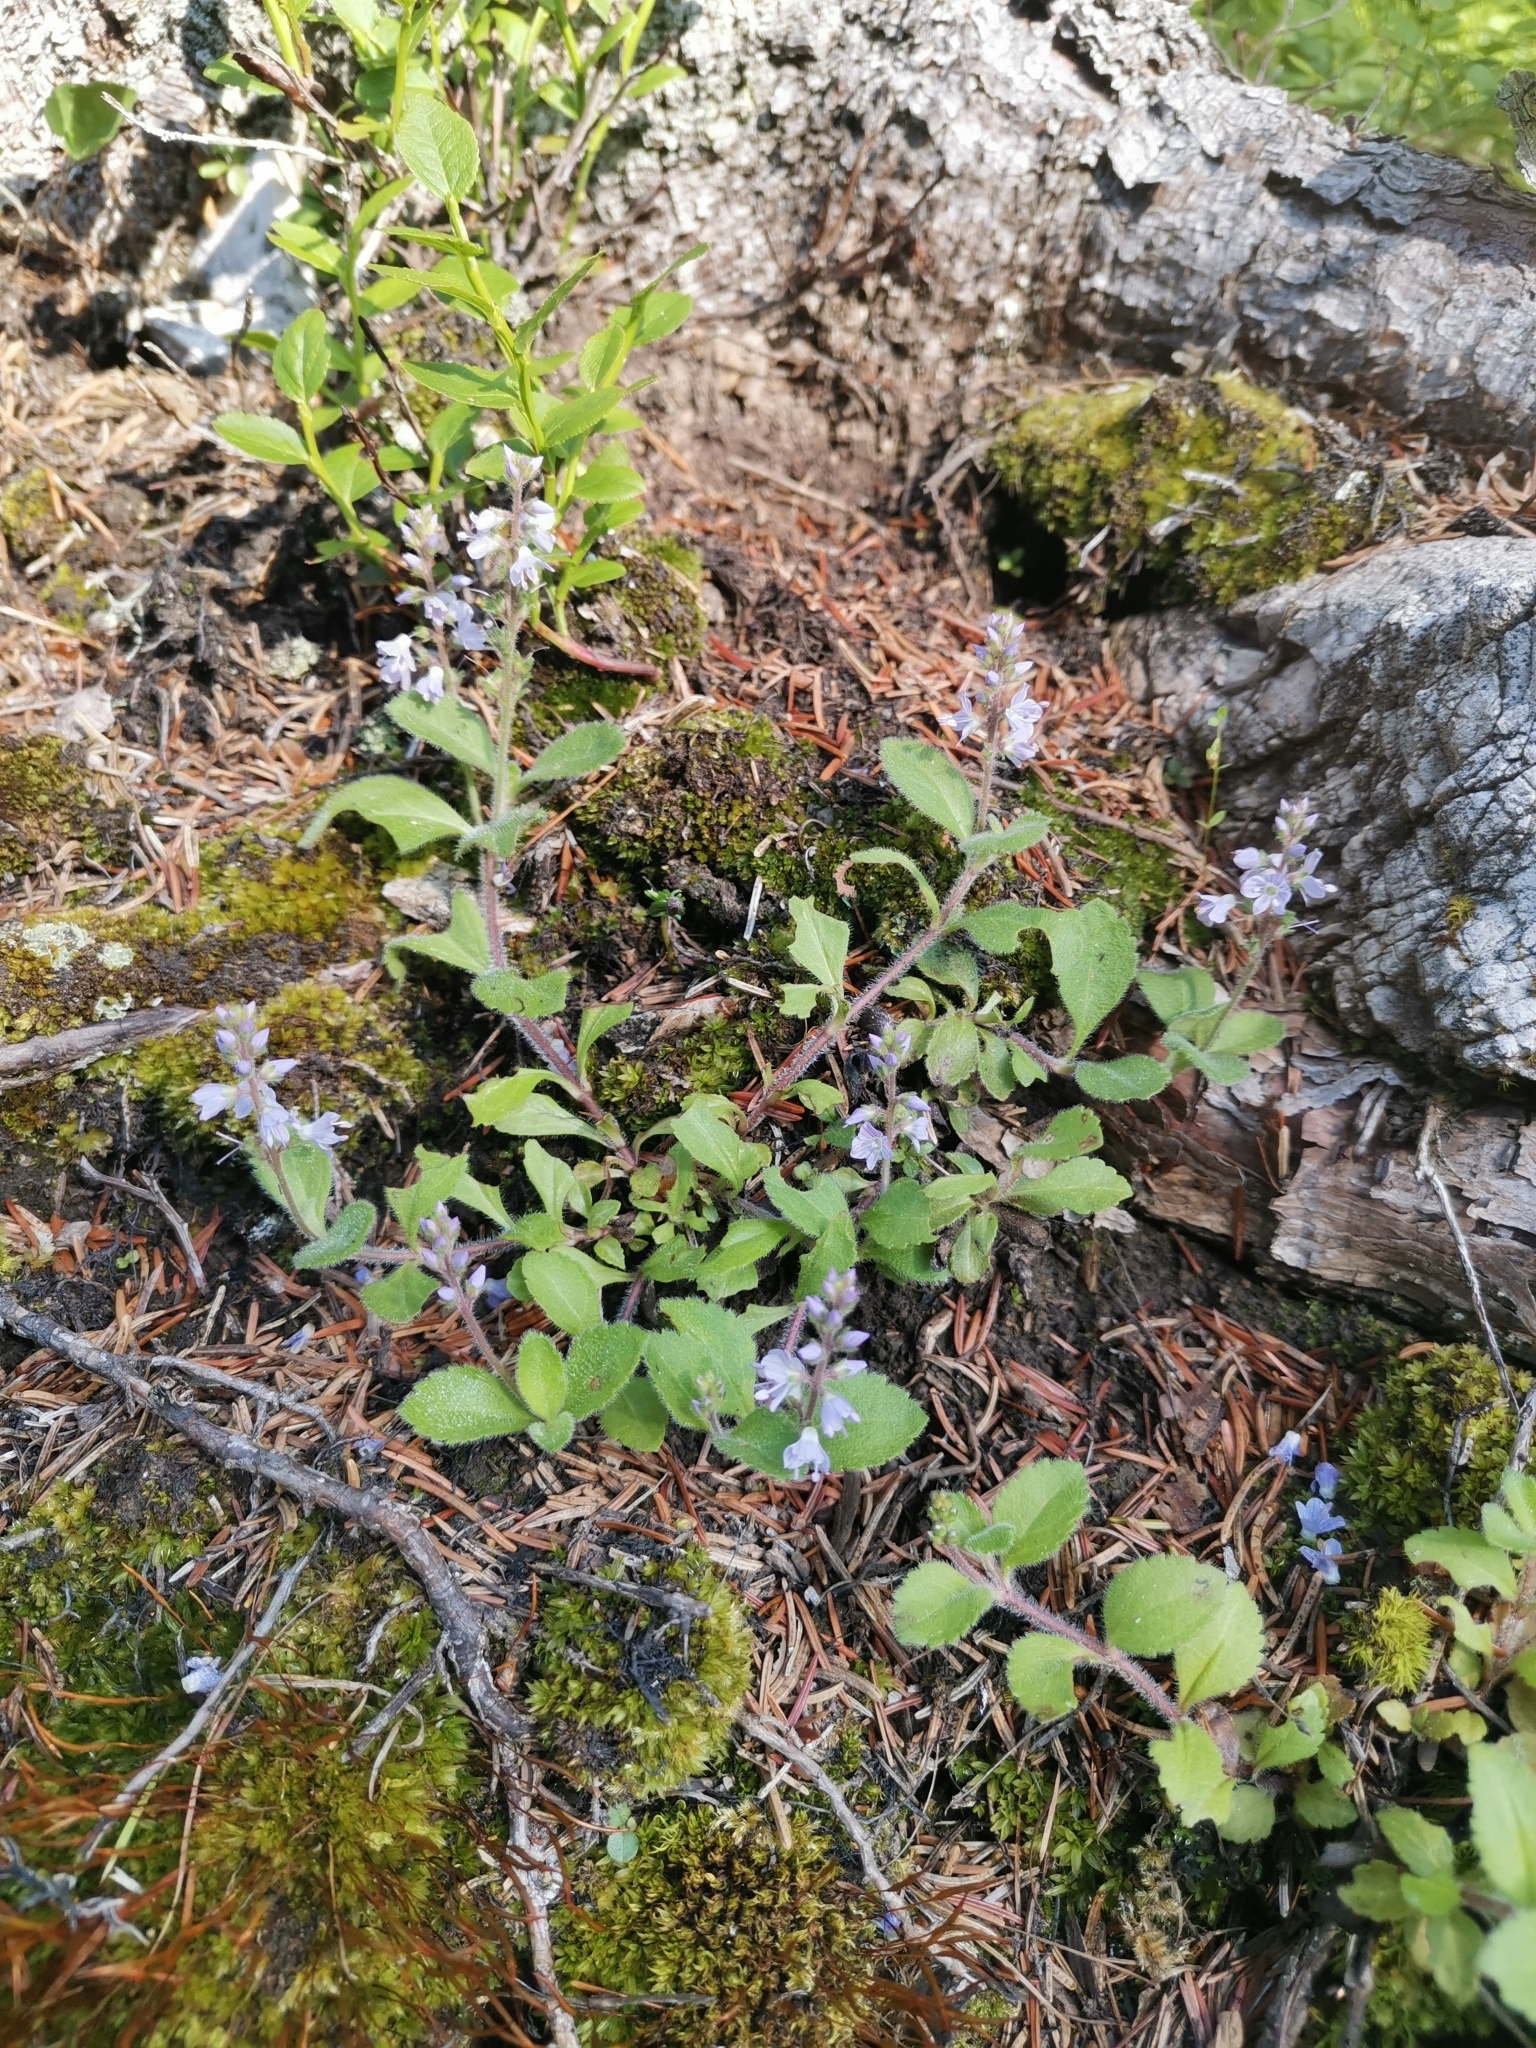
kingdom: Plantae
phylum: Tracheophyta
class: Magnoliopsida
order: Lamiales
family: Plantaginaceae
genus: Veronica
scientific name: Veronica officinalis
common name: Common speedwell
